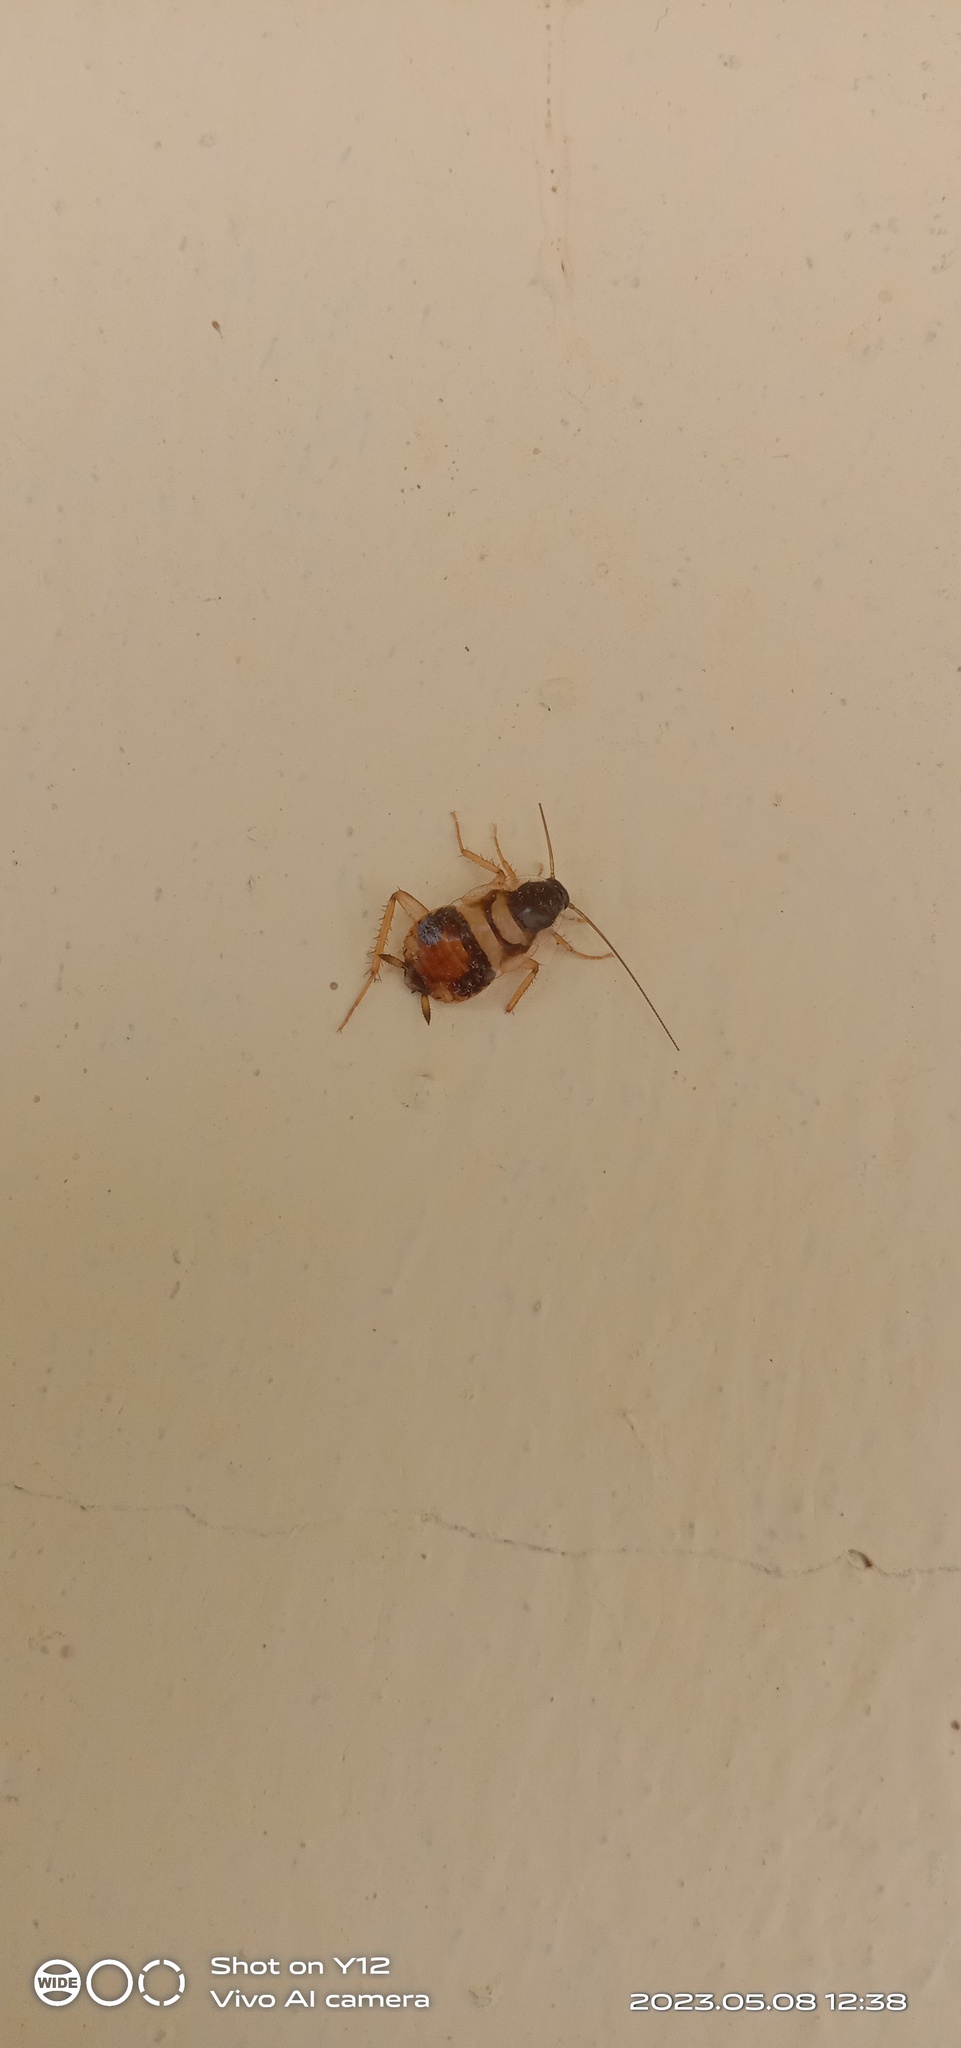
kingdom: Animalia
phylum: Arthropoda
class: Insecta
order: Blattodea
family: Ectobiidae
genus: Supella
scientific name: Supella longipalpa
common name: Brown-banded cockroach
